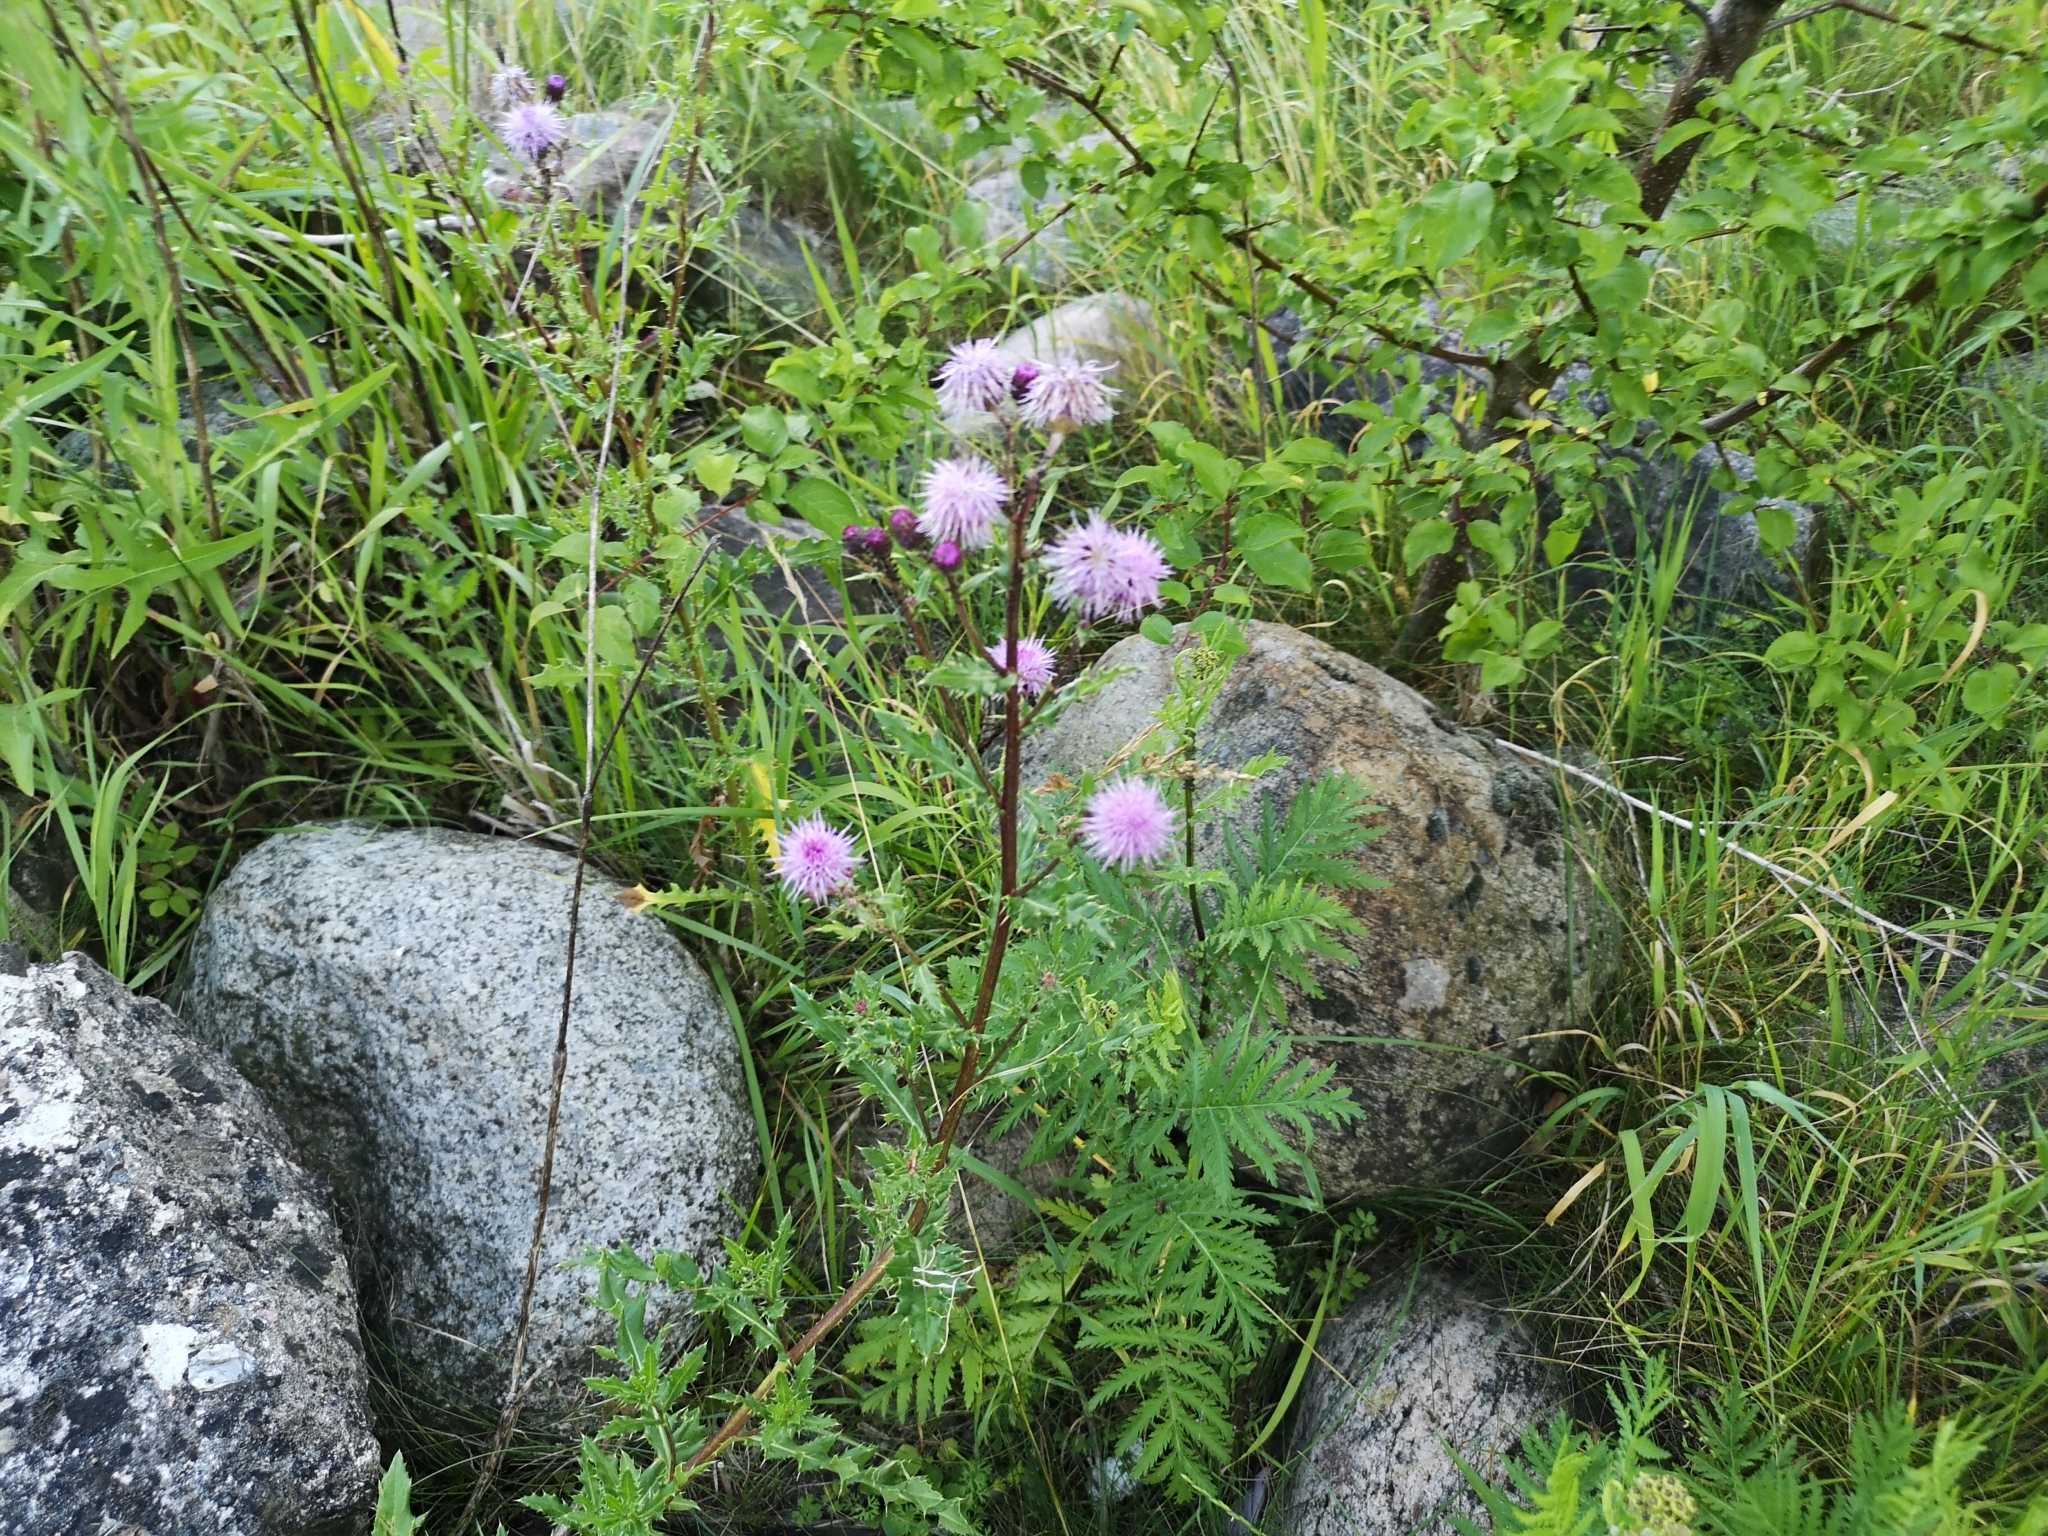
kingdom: Plantae
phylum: Tracheophyta
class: Magnoliopsida
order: Asterales
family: Asteraceae
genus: Cirsium
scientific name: Cirsium arvense
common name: Creeping thistle
